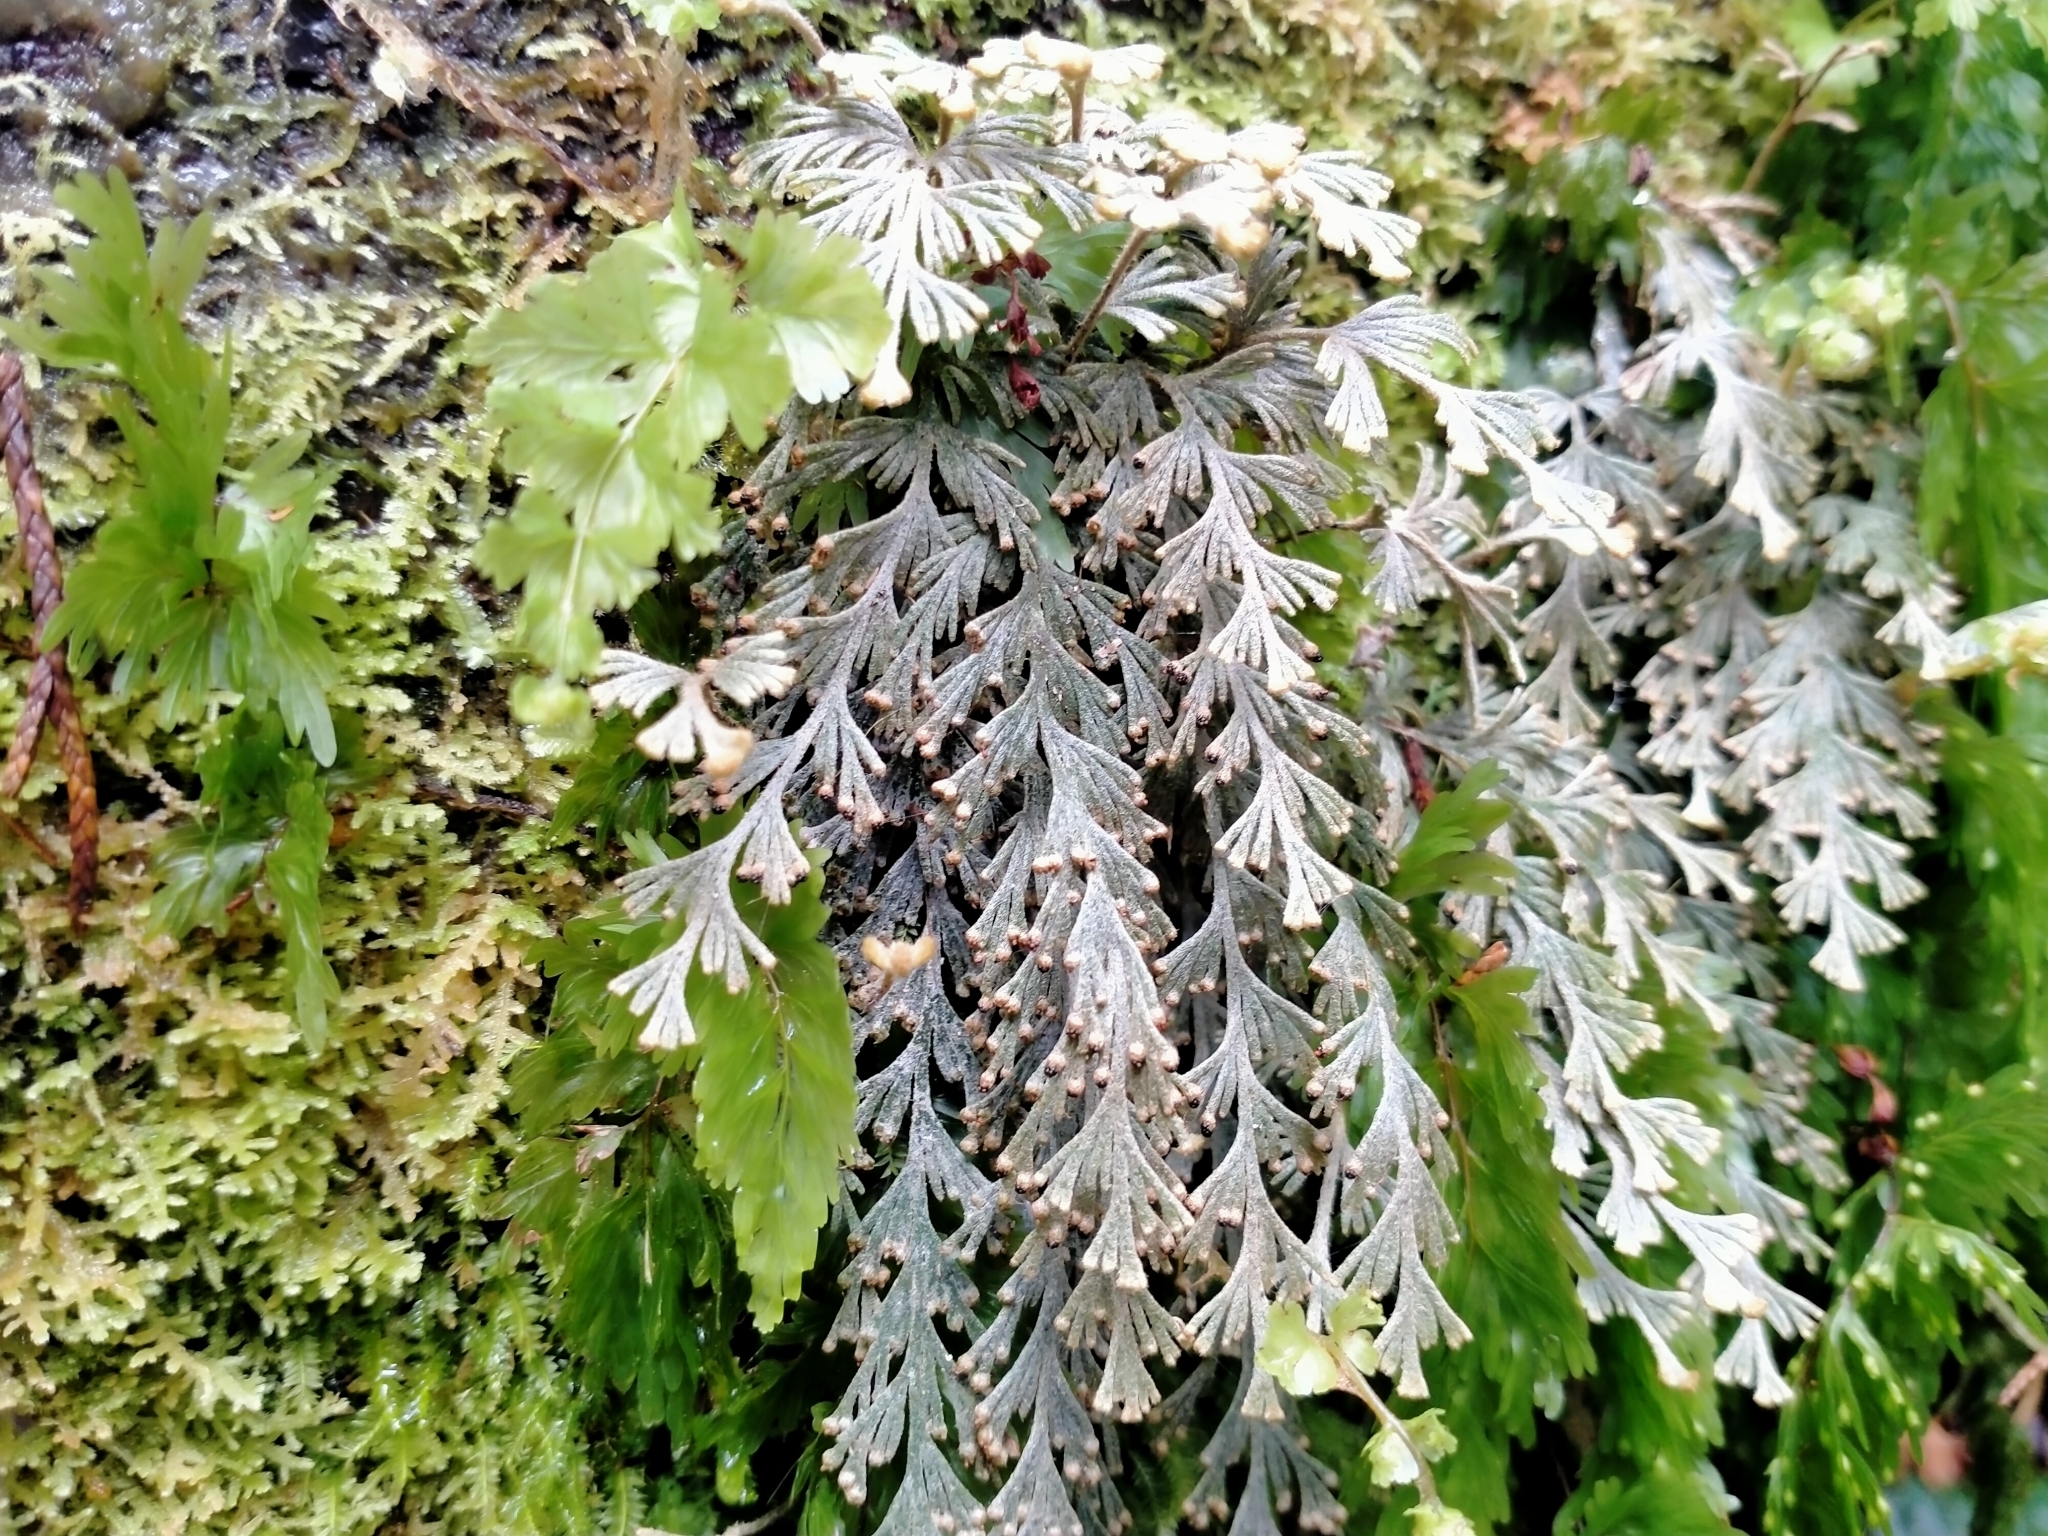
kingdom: Plantae
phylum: Tracheophyta
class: Polypodiopsida
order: Hymenophyllales
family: Hymenophyllaceae
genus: Hymenophyllum
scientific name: Hymenophyllum malingii
